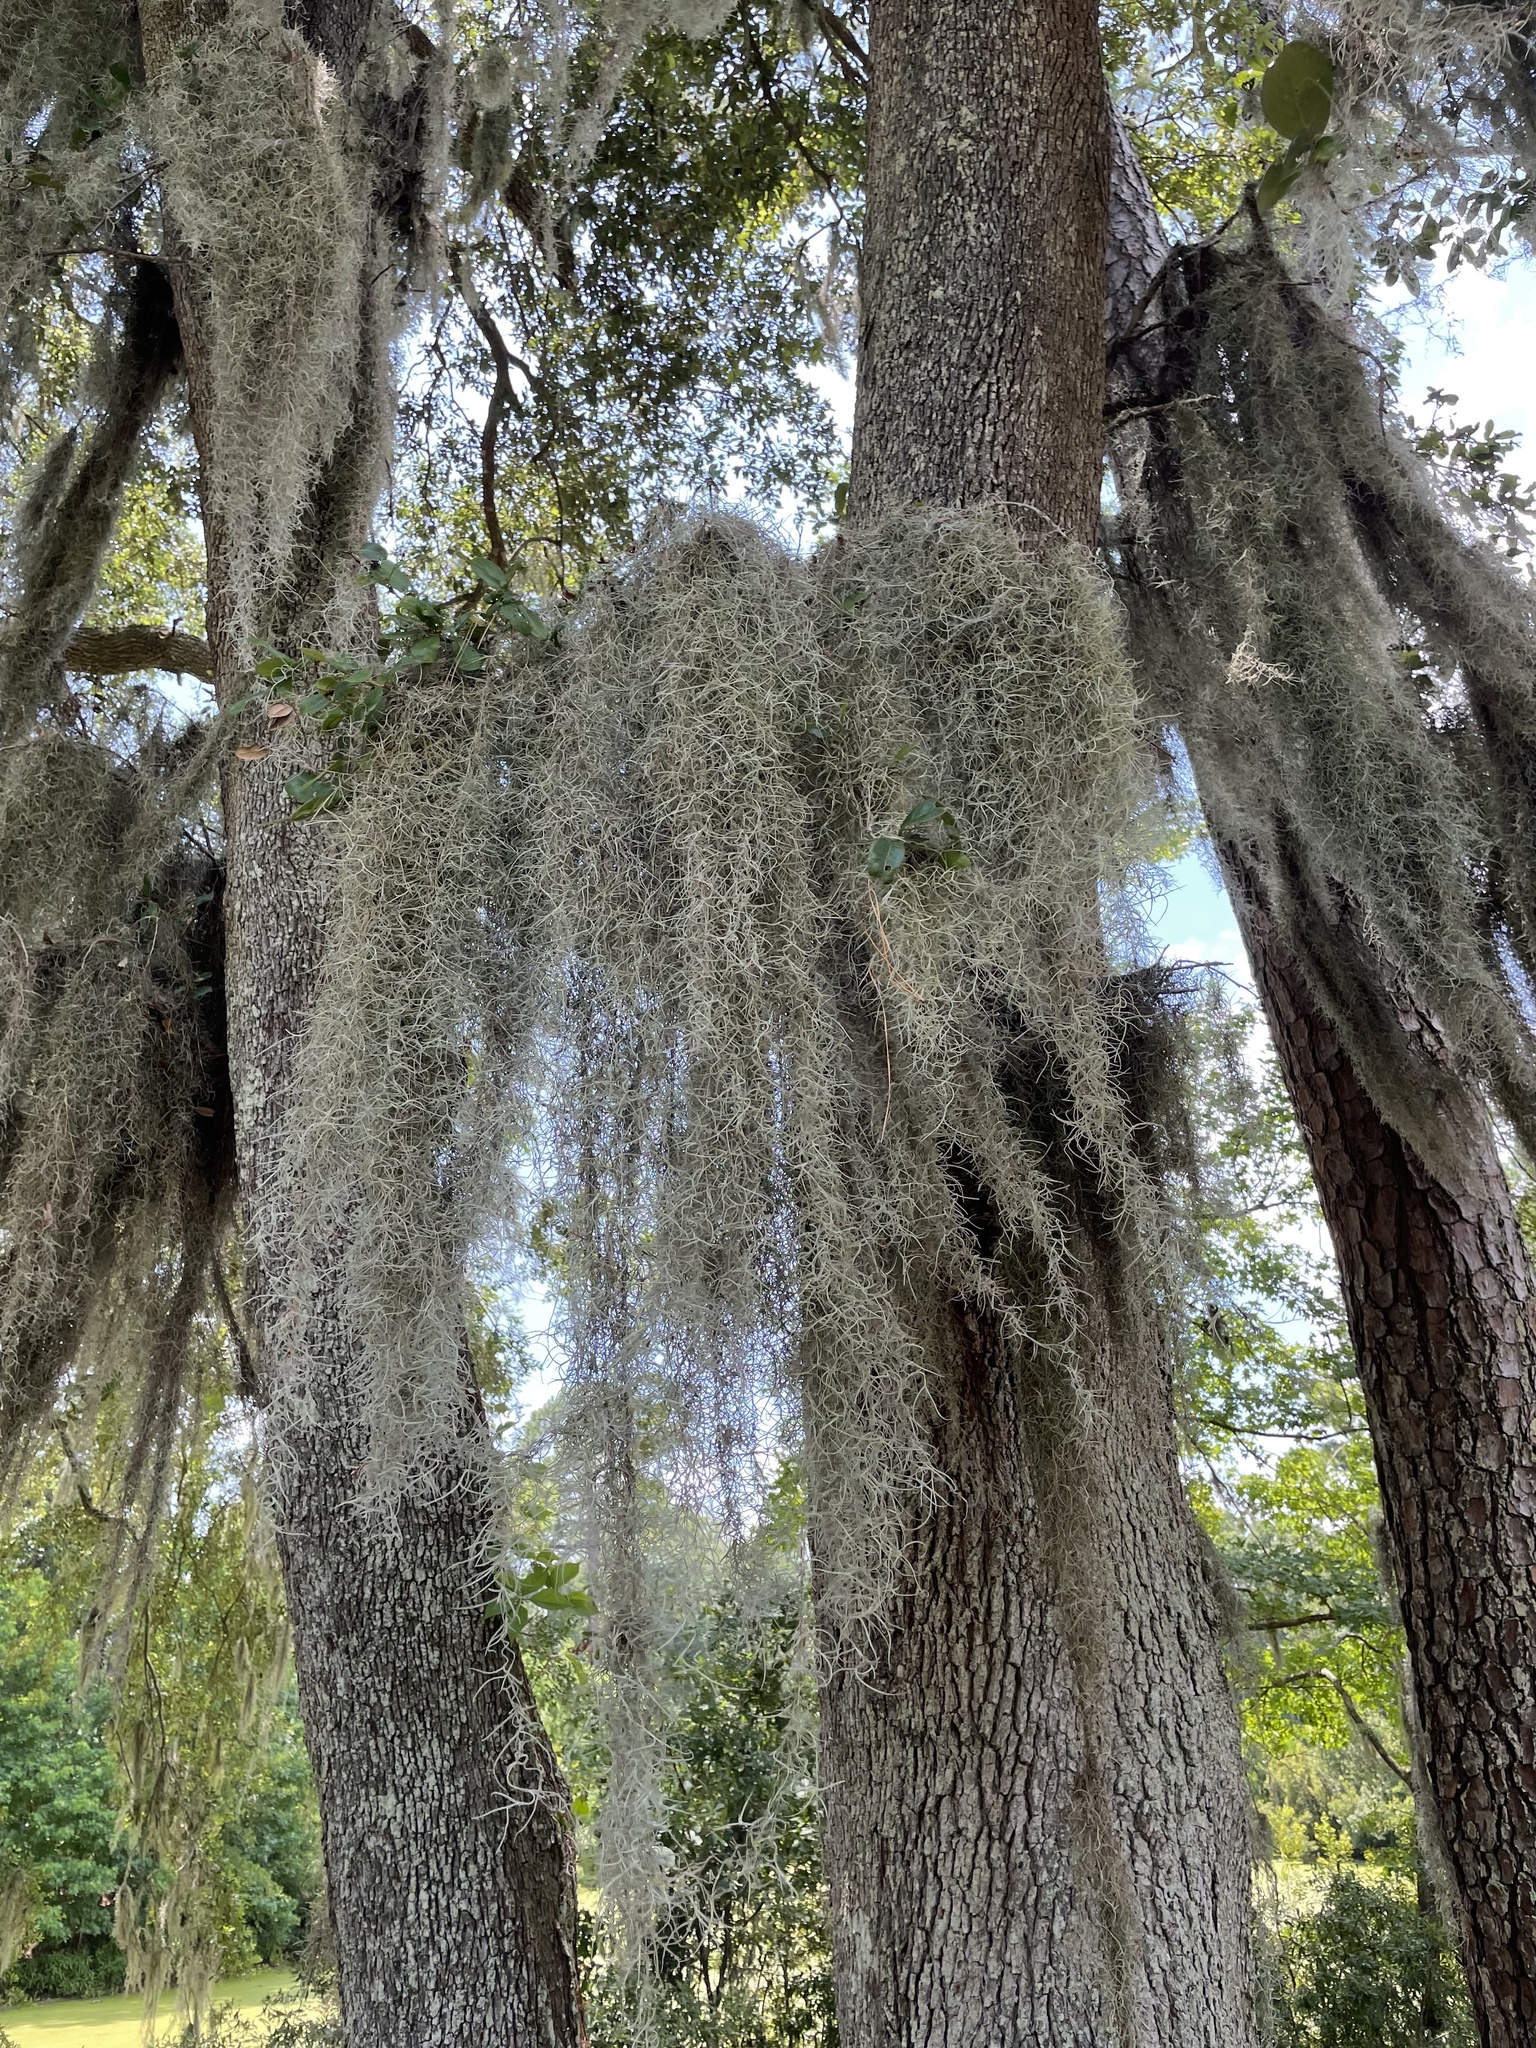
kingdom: Plantae
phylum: Tracheophyta
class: Liliopsida
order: Poales
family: Bromeliaceae
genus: Tillandsia
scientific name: Tillandsia usneoides
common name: Spanish moss
